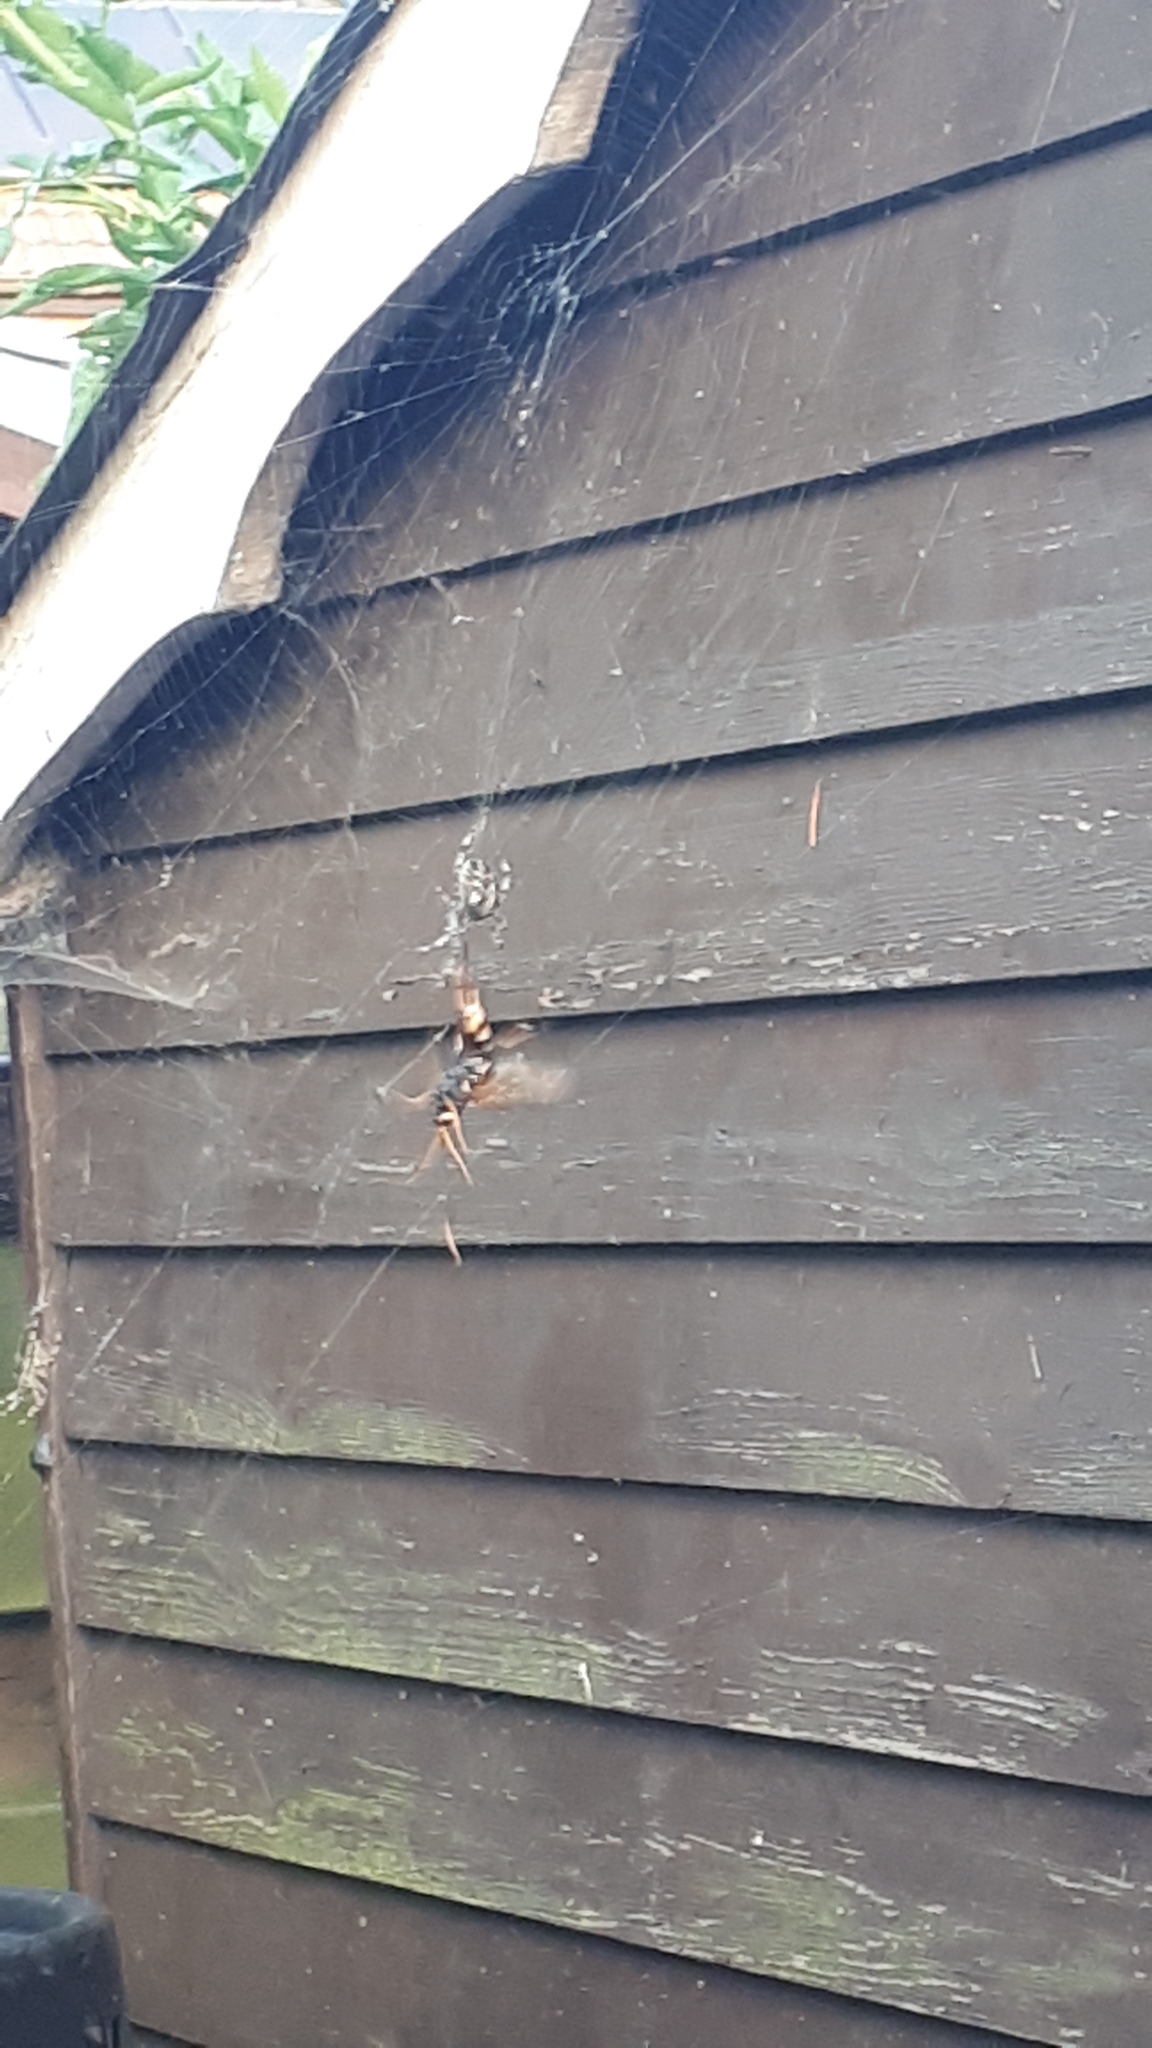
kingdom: Animalia
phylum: Arthropoda
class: Insecta
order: Hymenoptera
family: Siricidae
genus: Urocerus
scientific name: Urocerus gigas
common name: Giant woodwasp
